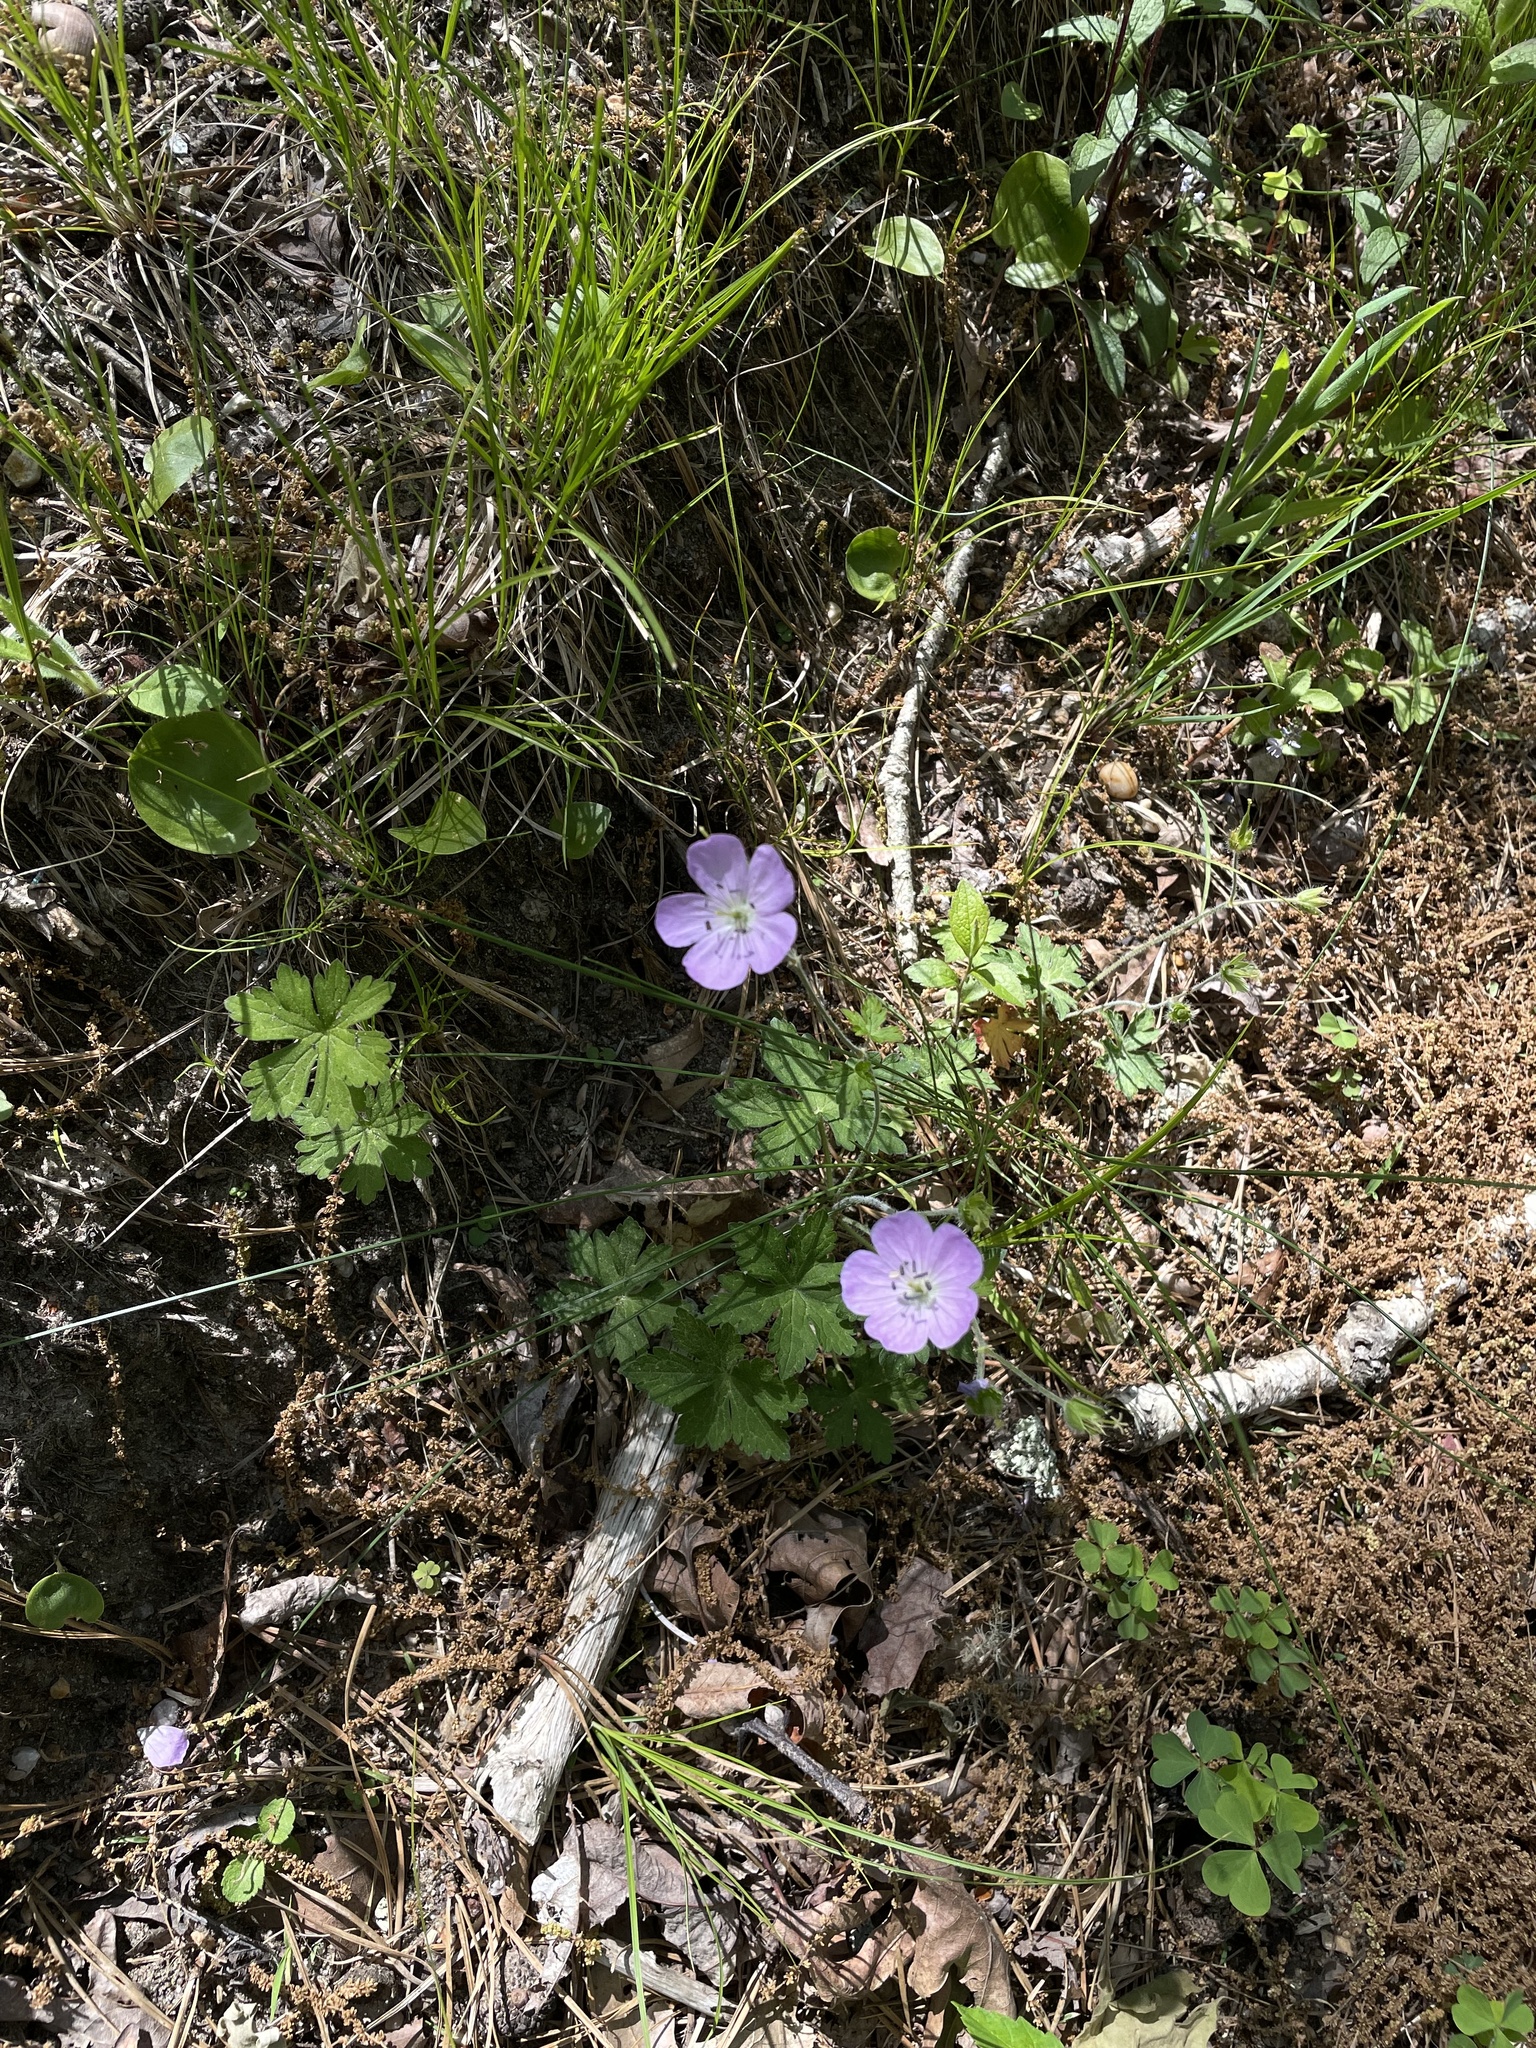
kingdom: Plantae
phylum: Tracheophyta
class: Magnoliopsida
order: Geraniales
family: Geraniaceae
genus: Geranium
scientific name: Geranium maculatum
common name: Spotted geranium
